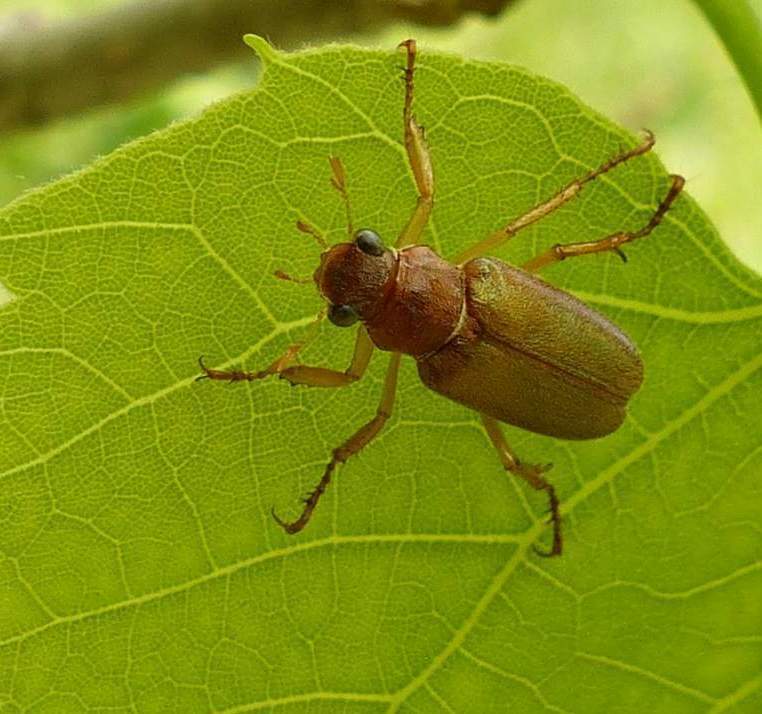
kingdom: Animalia
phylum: Arthropoda
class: Insecta
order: Coleoptera
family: Scarabaeidae
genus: Dichelonyx
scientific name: Dichelonyx linearis
